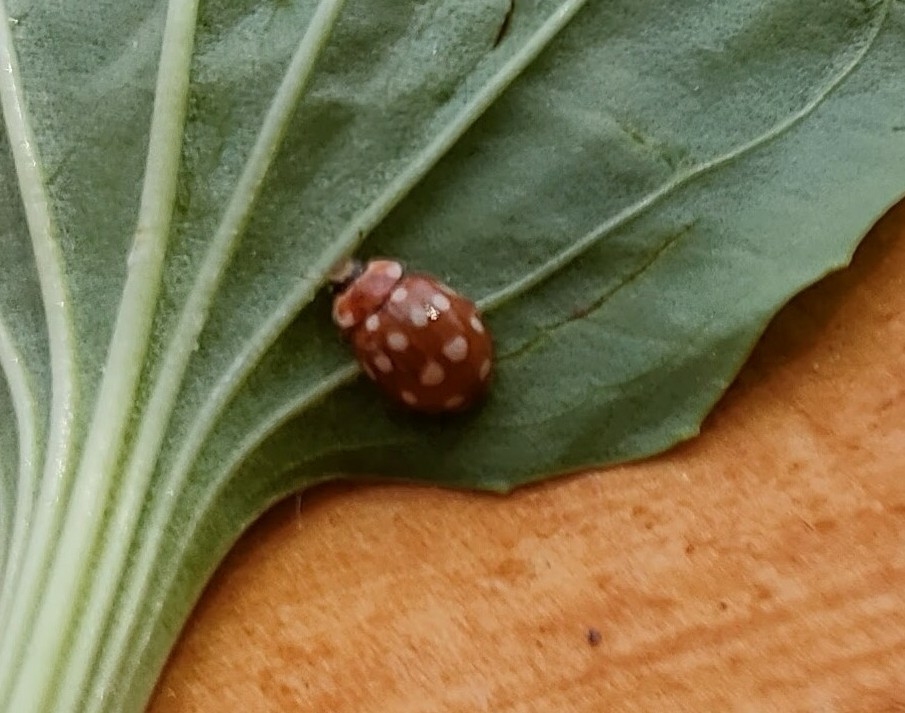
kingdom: Animalia
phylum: Arthropoda
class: Insecta
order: Coleoptera
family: Coccinellidae
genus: Calvia
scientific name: Calvia quatuordecimguttata
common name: Cream-spot ladybird
